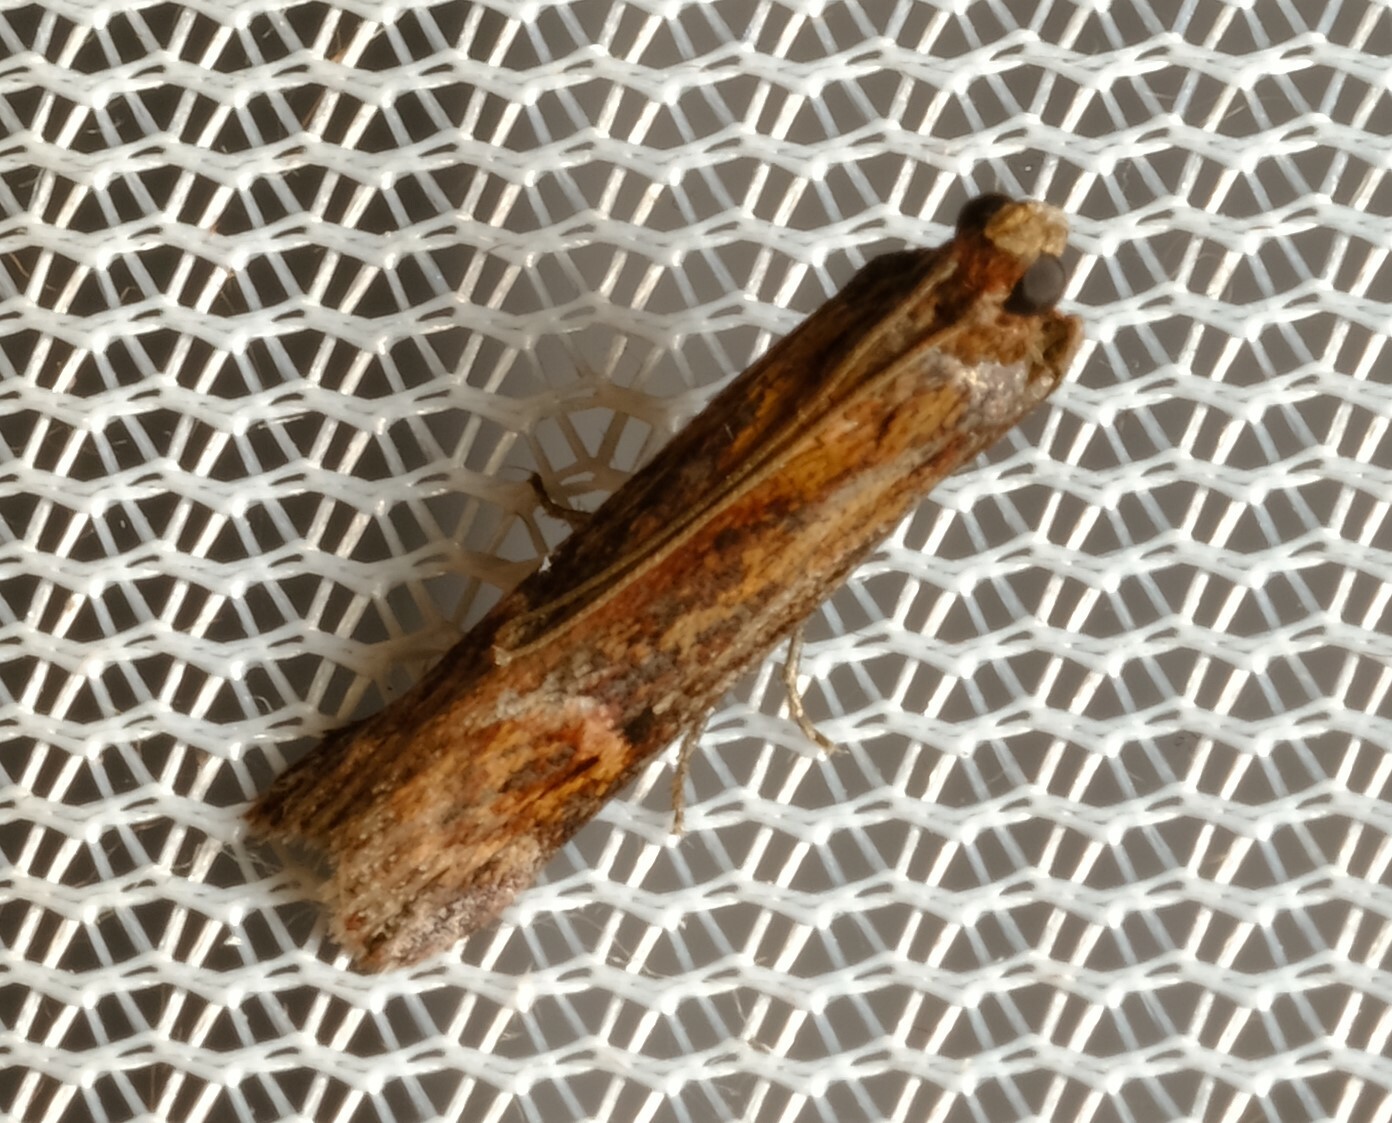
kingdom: Animalia
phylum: Arthropoda
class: Insecta
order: Lepidoptera
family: Pyralidae
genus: Balanomis
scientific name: Balanomis encyclia
